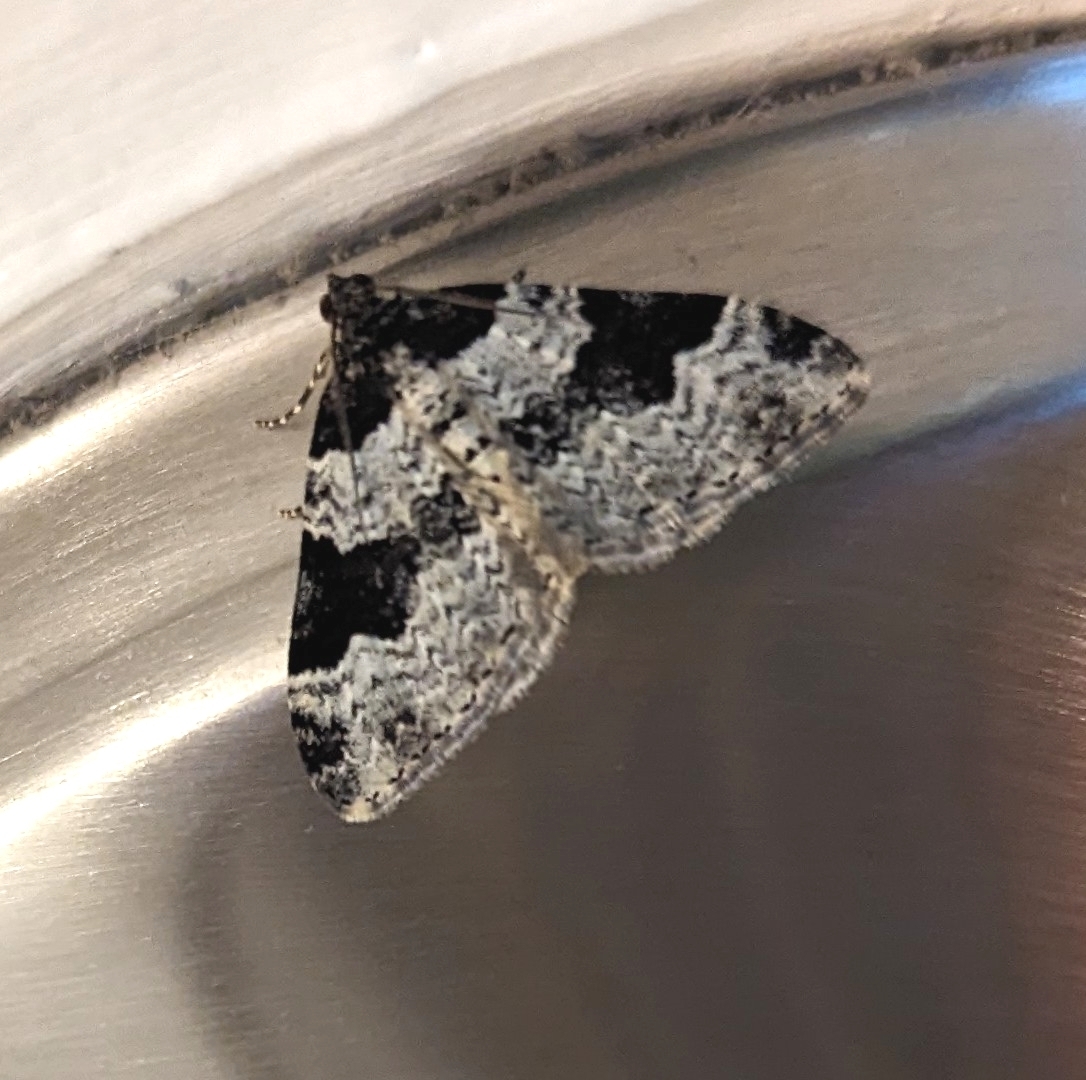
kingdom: Animalia
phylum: Arthropoda
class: Insecta
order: Lepidoptera
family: Geometridae
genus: Xanthorhoe
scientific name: Xanthorhoe fluctuata
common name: Garden carpet
